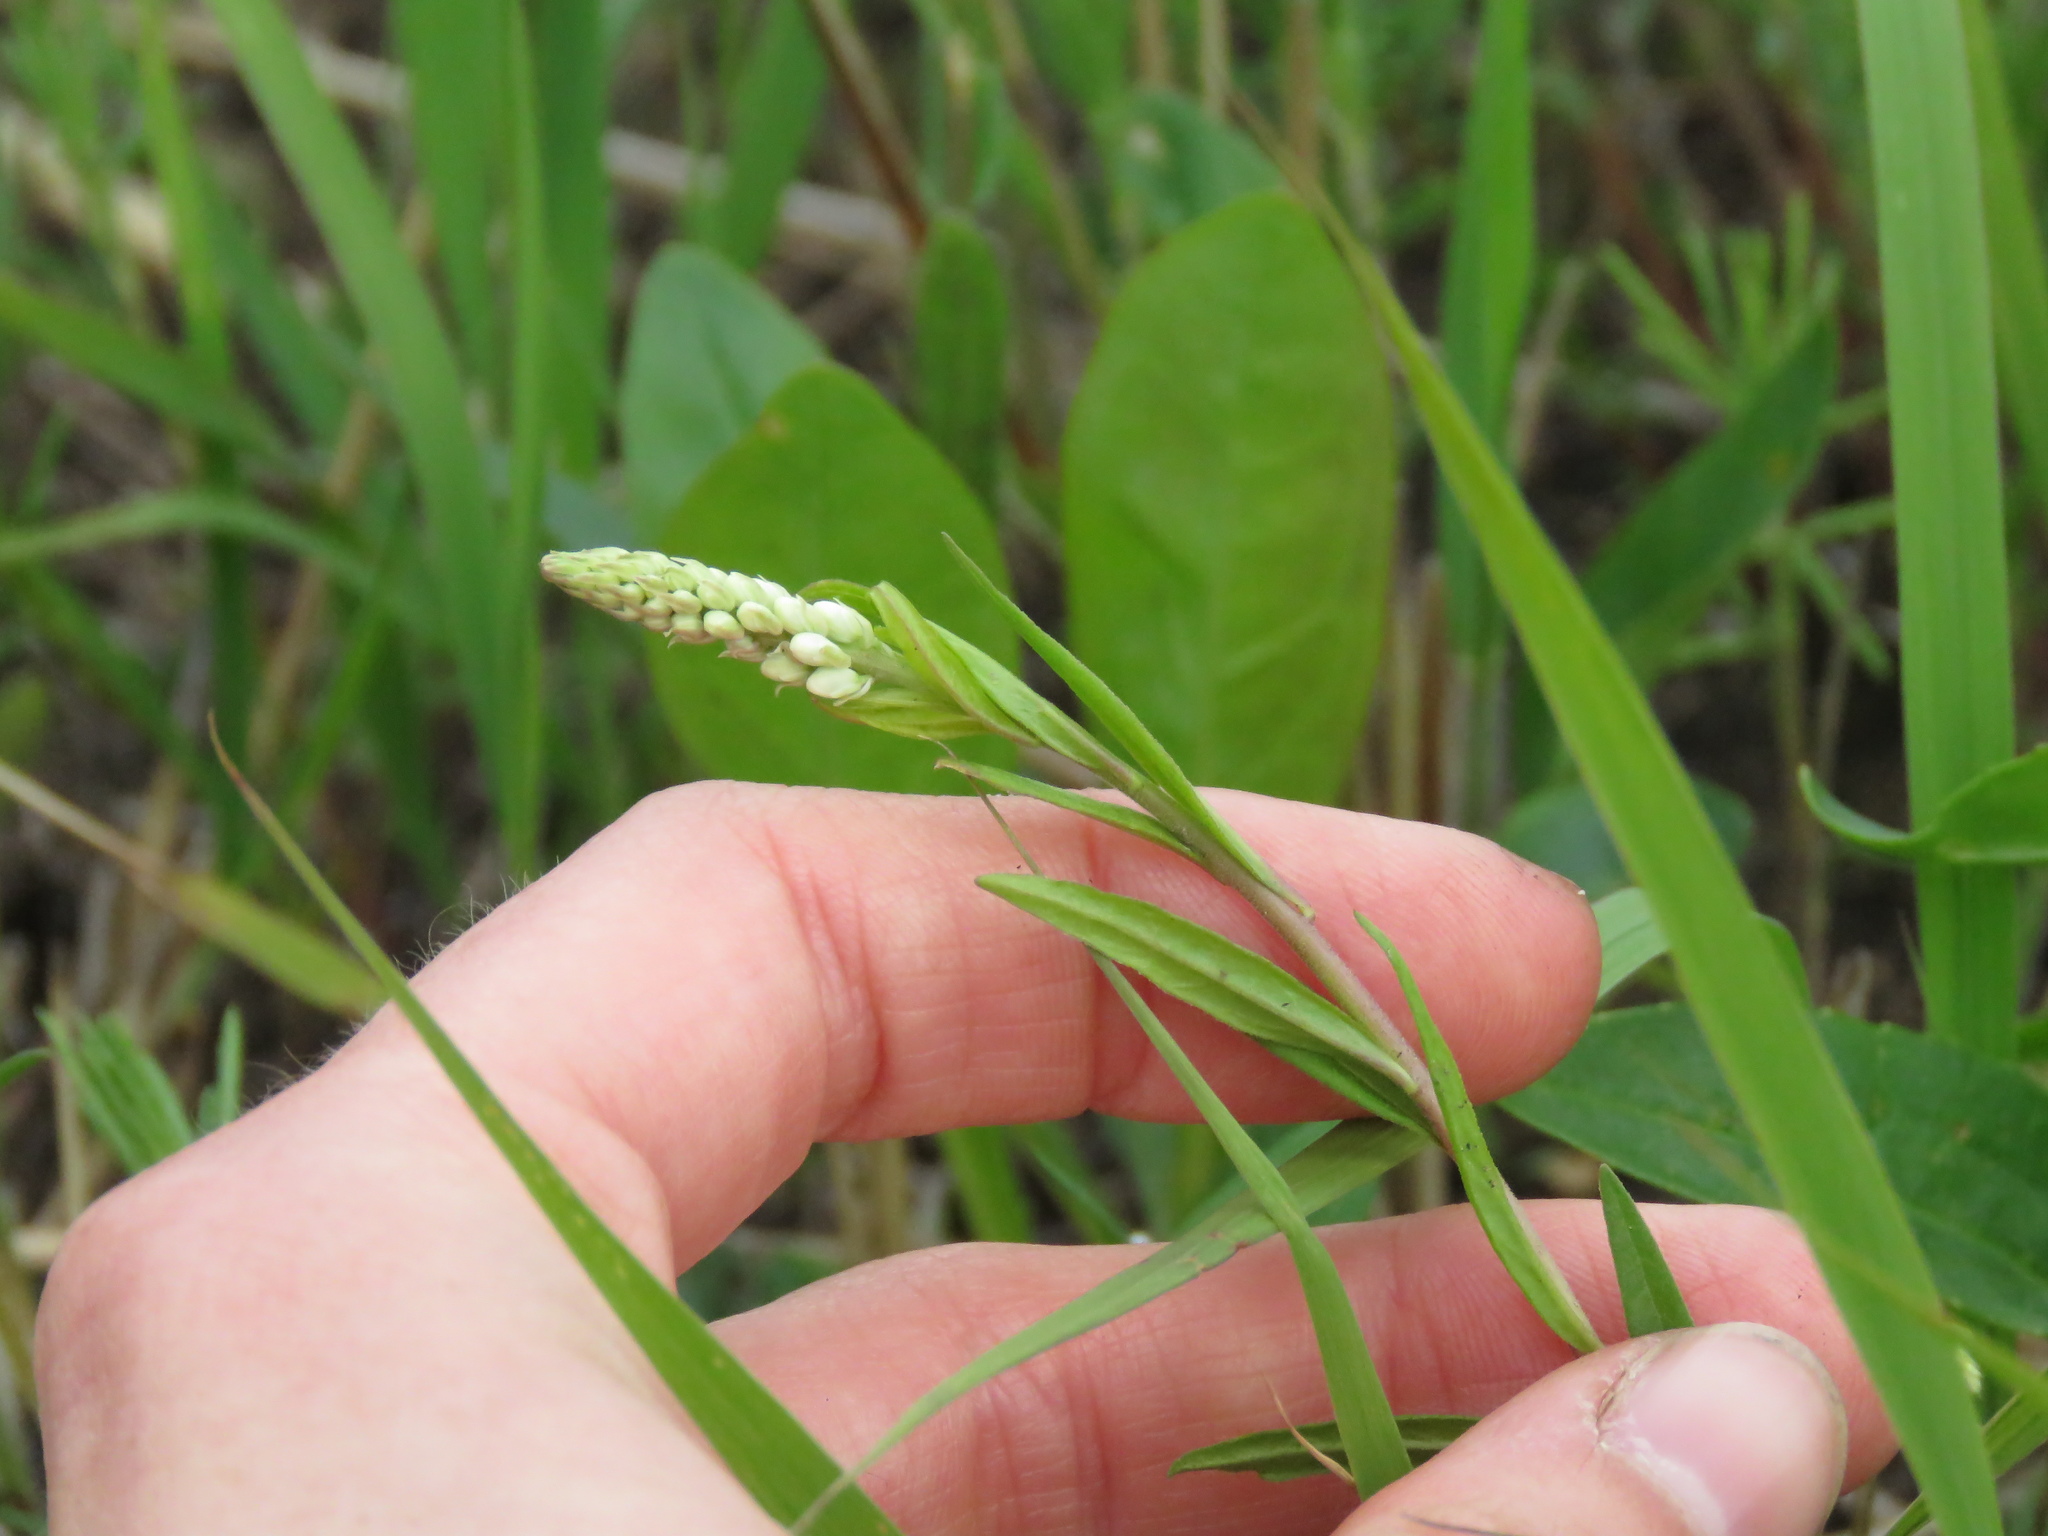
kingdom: Plantae
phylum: Tracheophyta
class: Magnoliopsida
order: Fabales
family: Polygalaceae
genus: Polygala
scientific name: Polygala senega
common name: Seneca snakeroot
